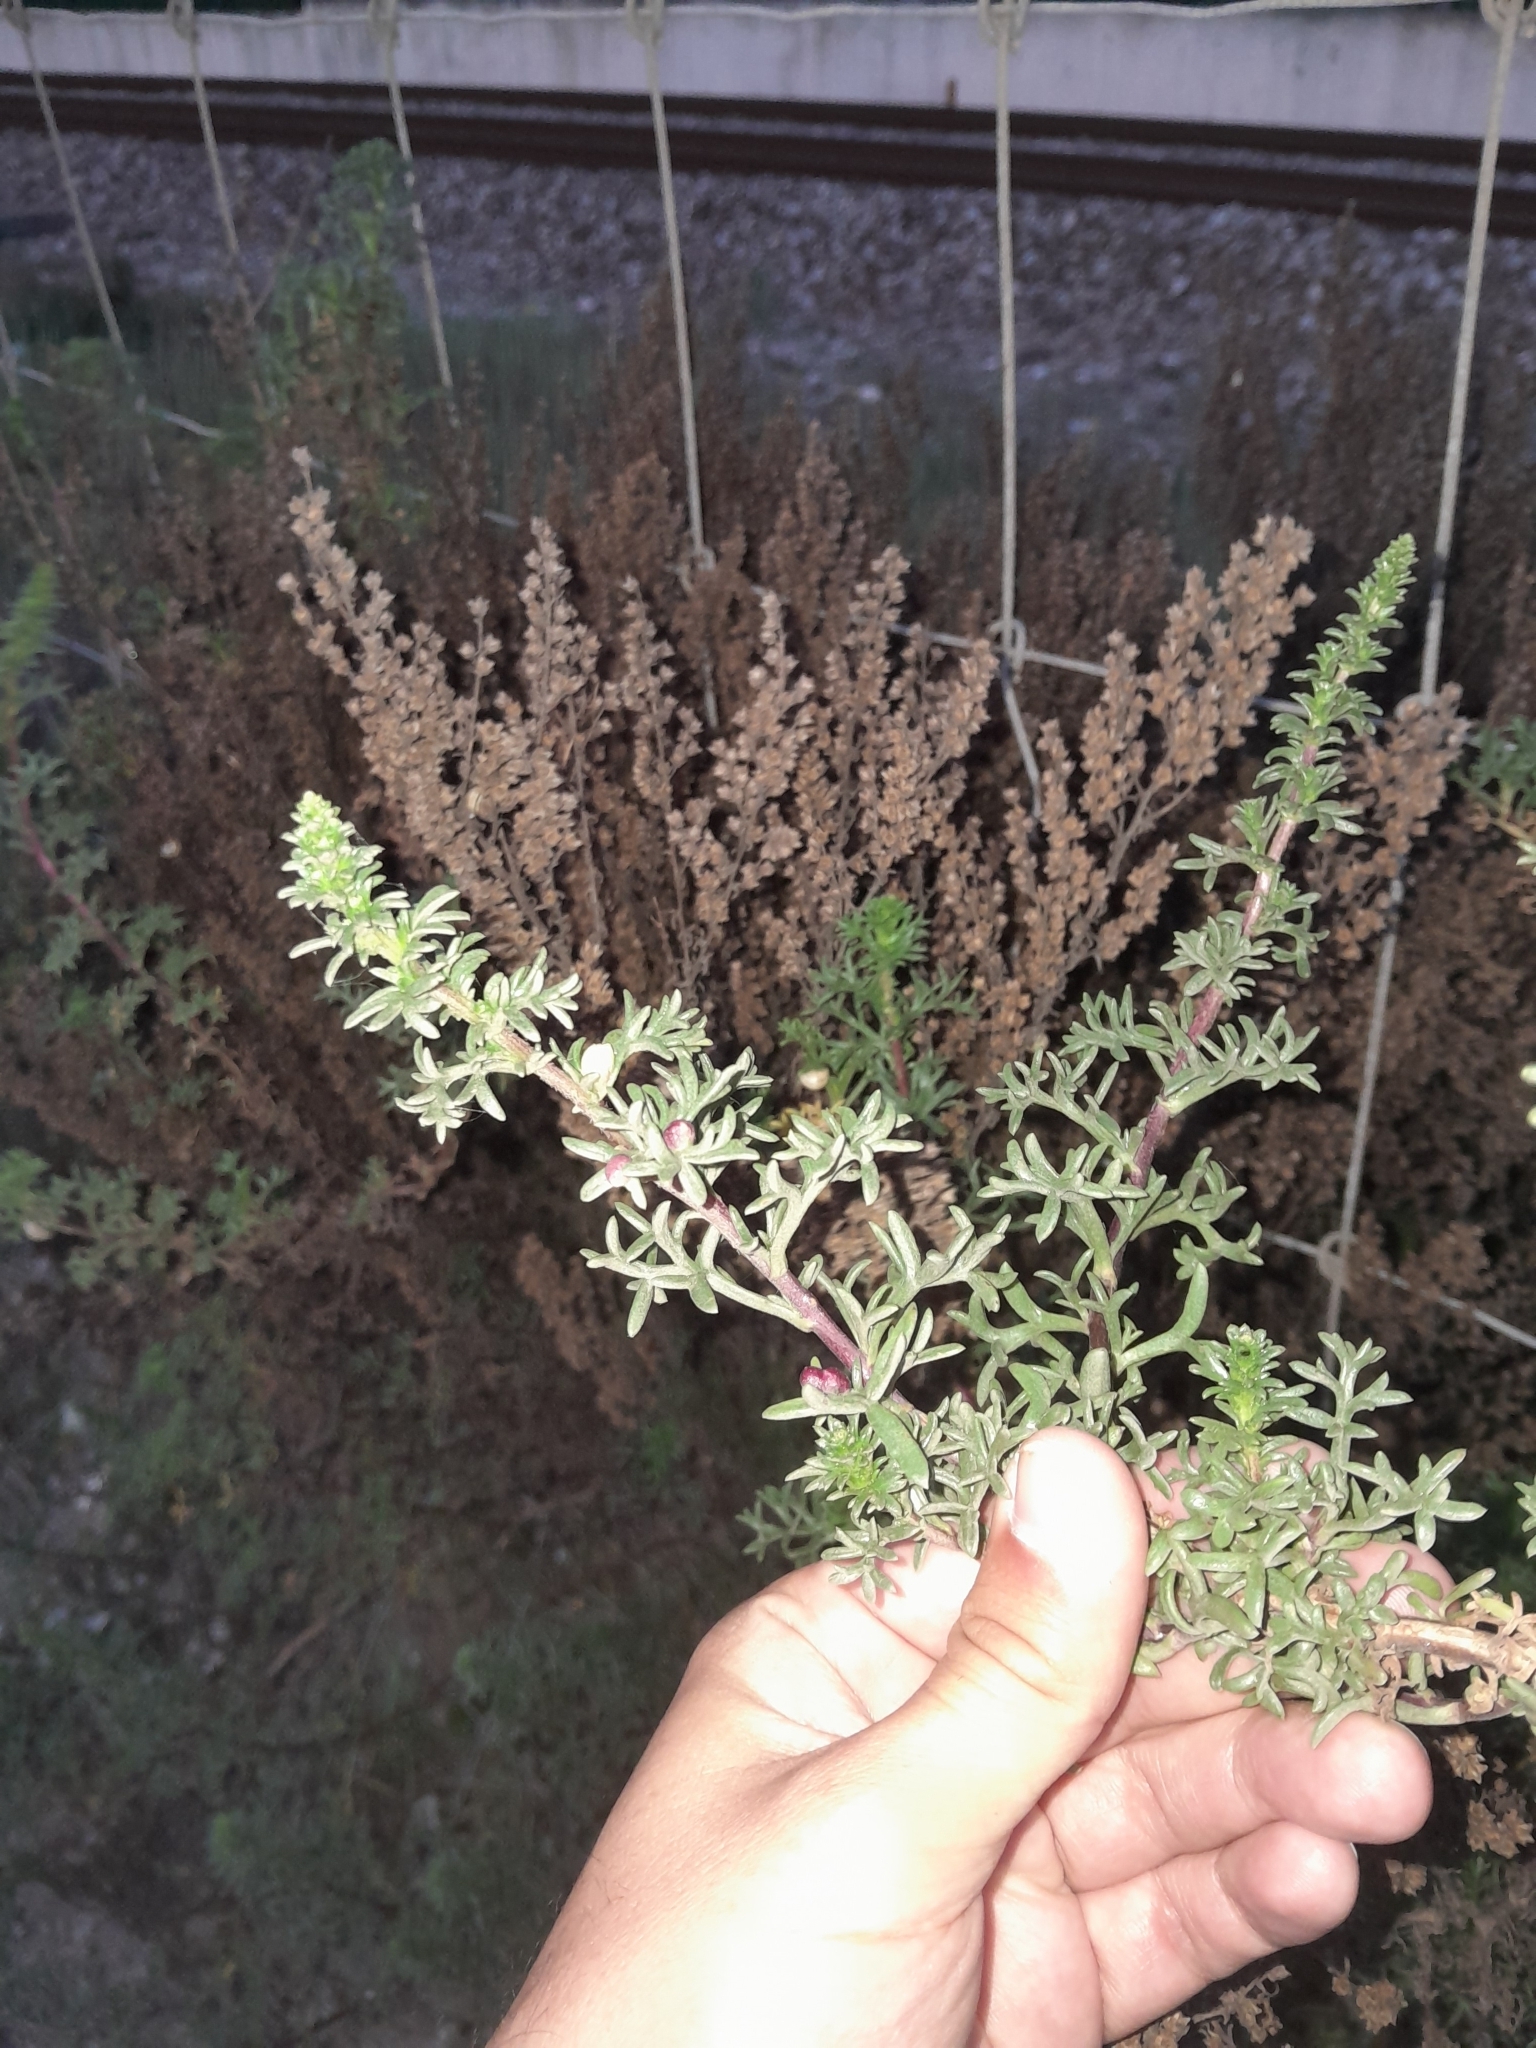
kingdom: Animalia
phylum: Arthropoda
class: Insecta
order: Diptera
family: Cecidomyiidae
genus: Rhopalomyia
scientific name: Rhopalomyia baccarum
